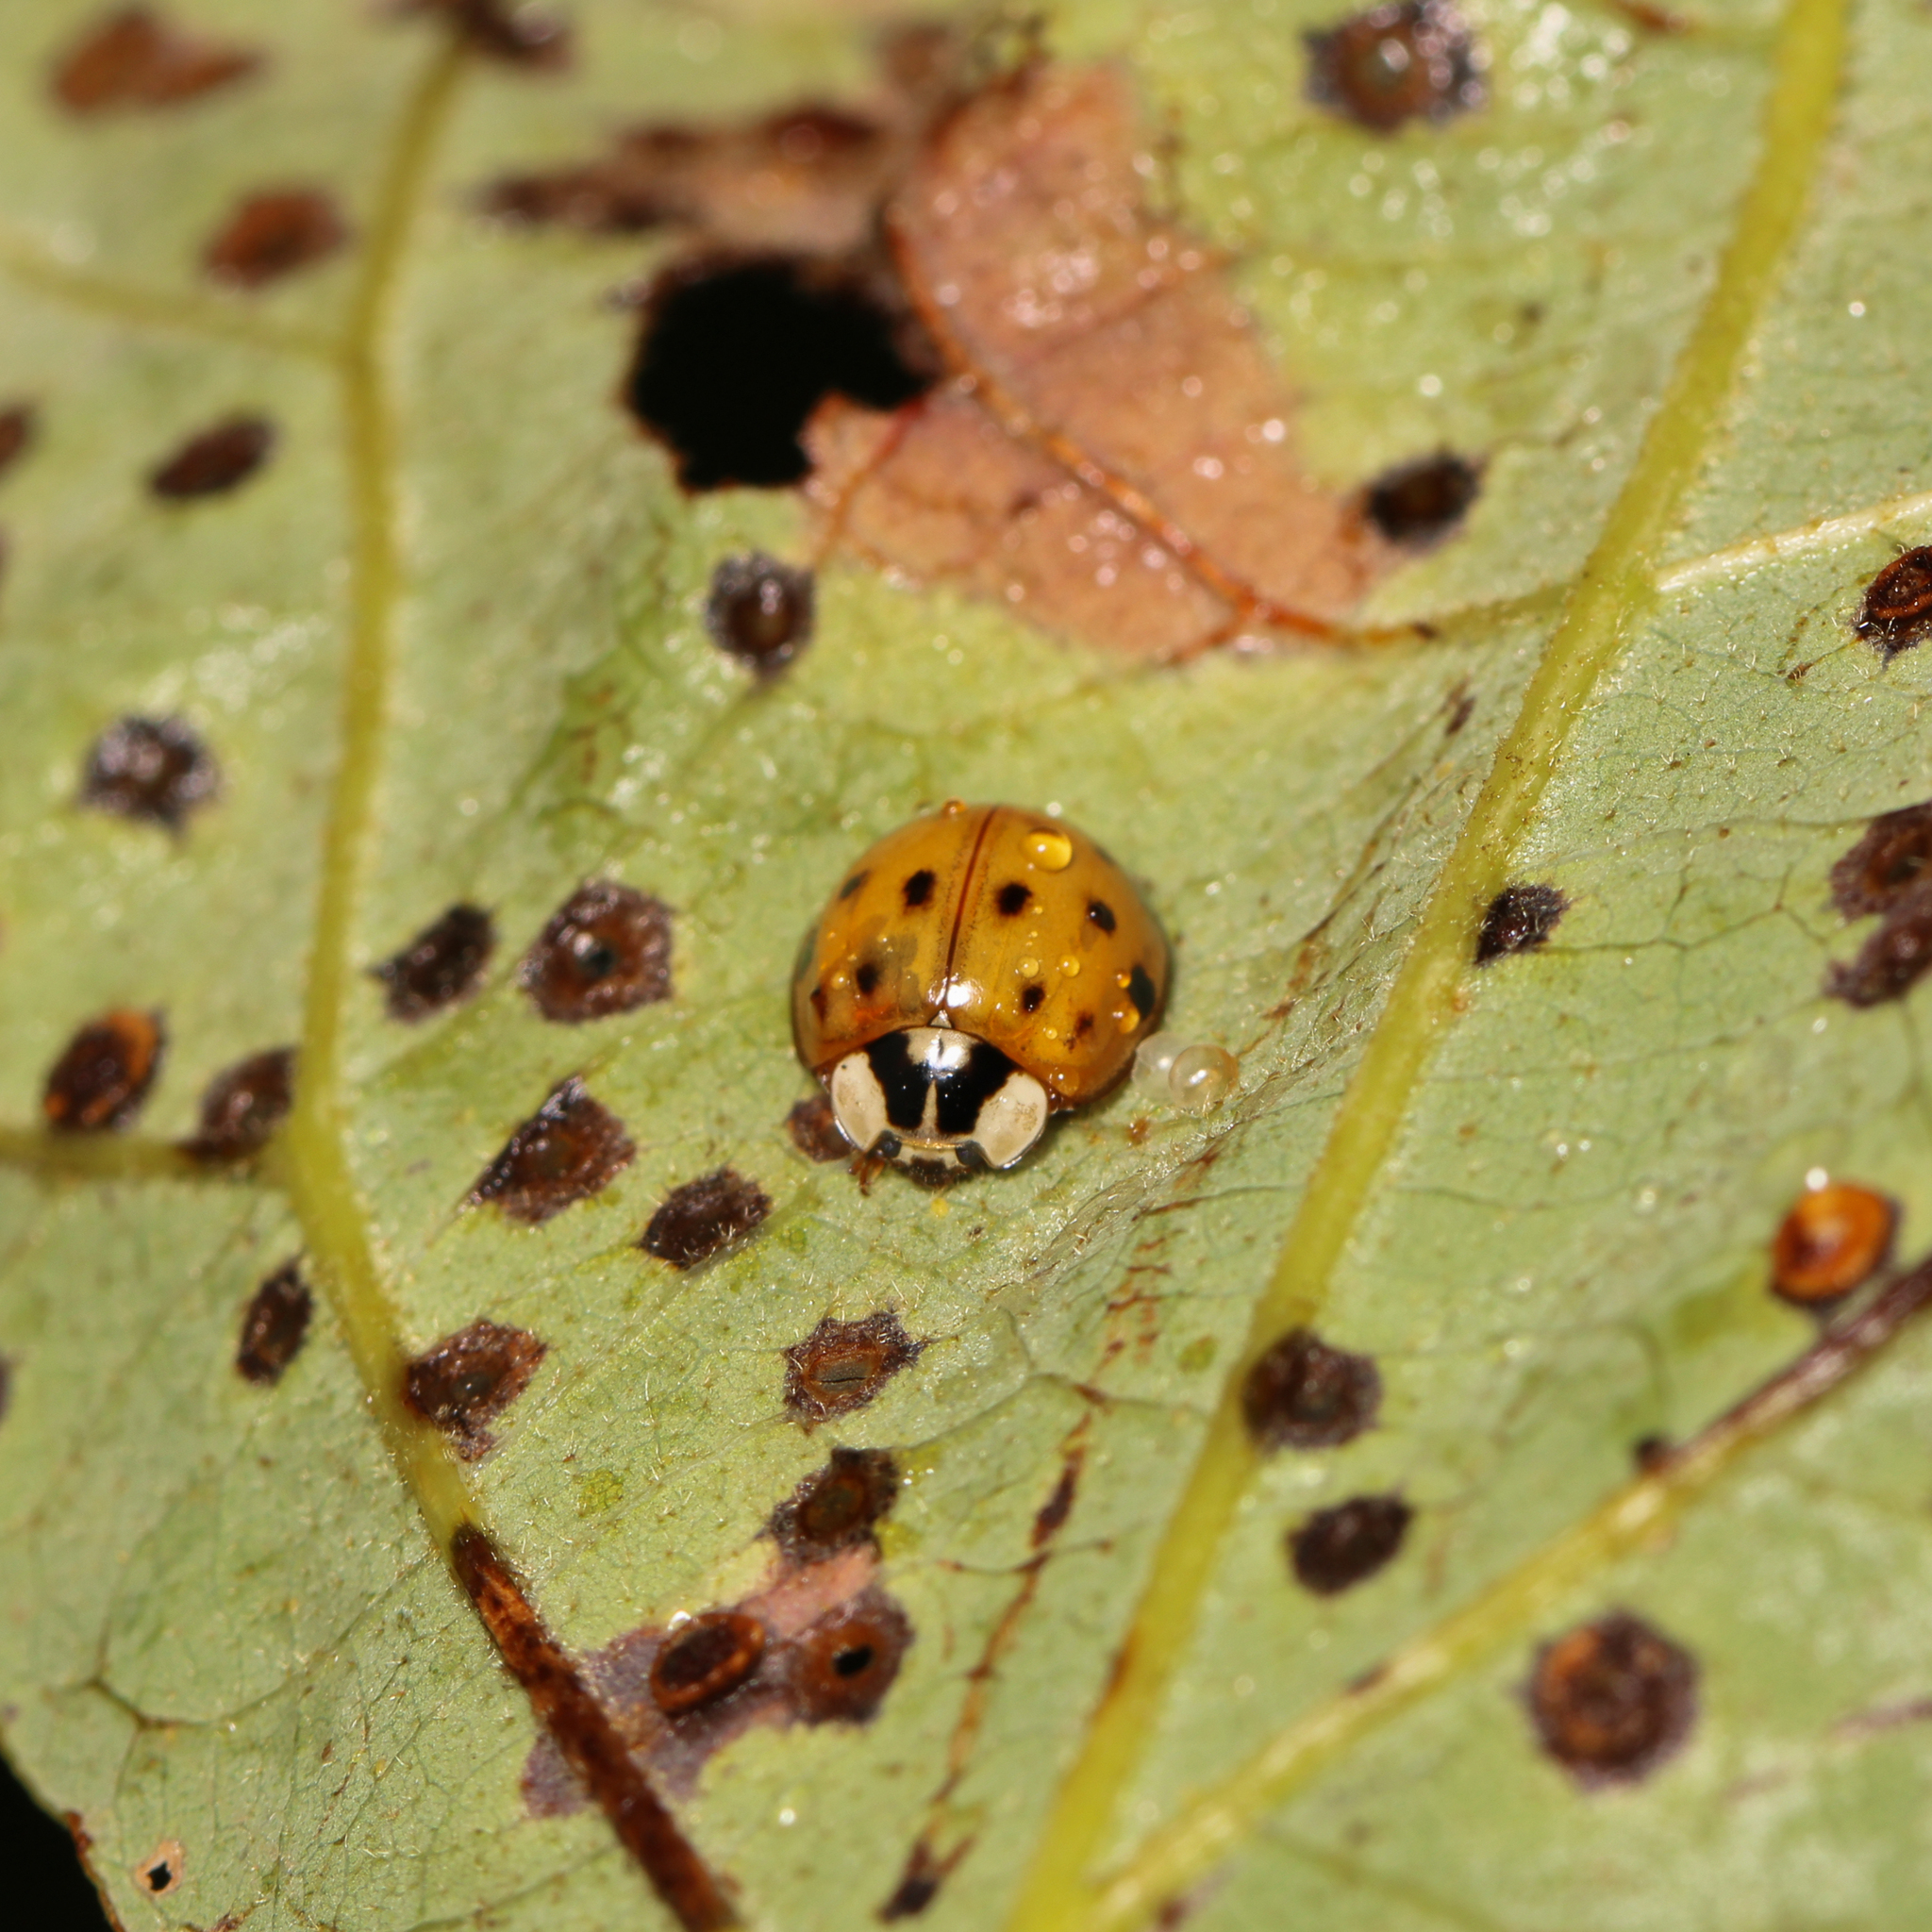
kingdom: Animalia
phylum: Arthropoda
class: Insecta
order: Coleoptera
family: Coccinellidae
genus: Harmonia
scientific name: Harmonia axyridis
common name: Harlequin ladybird
